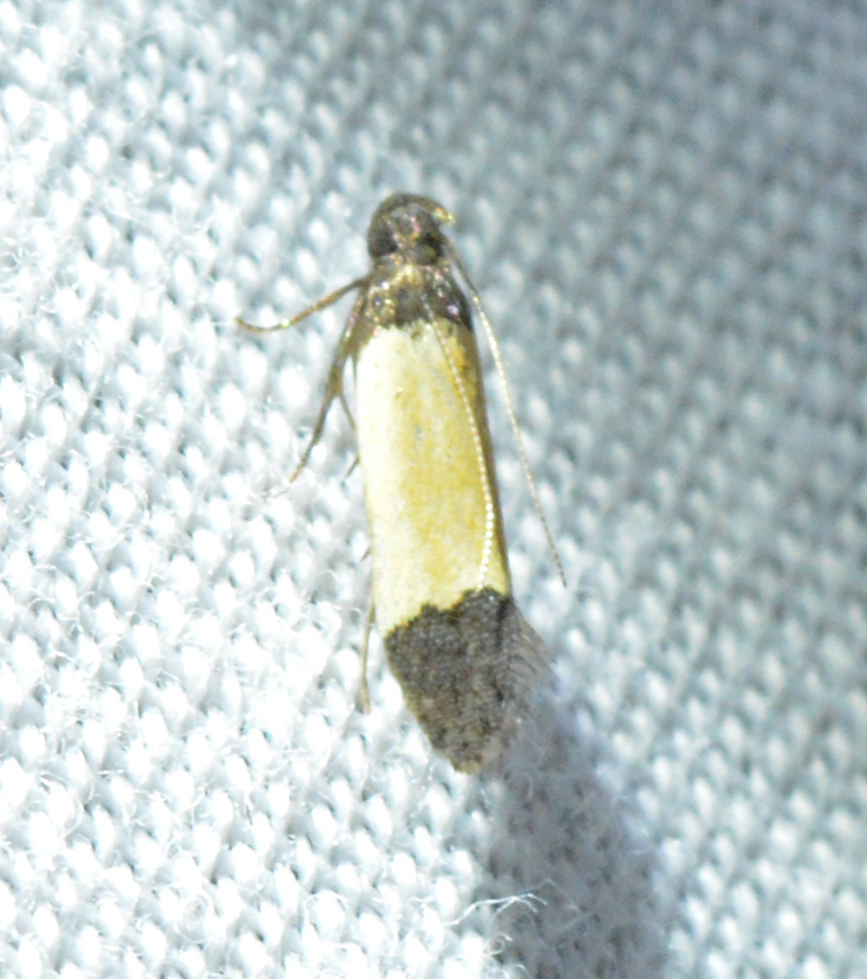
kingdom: Animalia
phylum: Arthropoda
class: Insecta
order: Lepidoptera
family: Gelechiidae
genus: Anacampsis
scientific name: Anacampsis coverdalella
